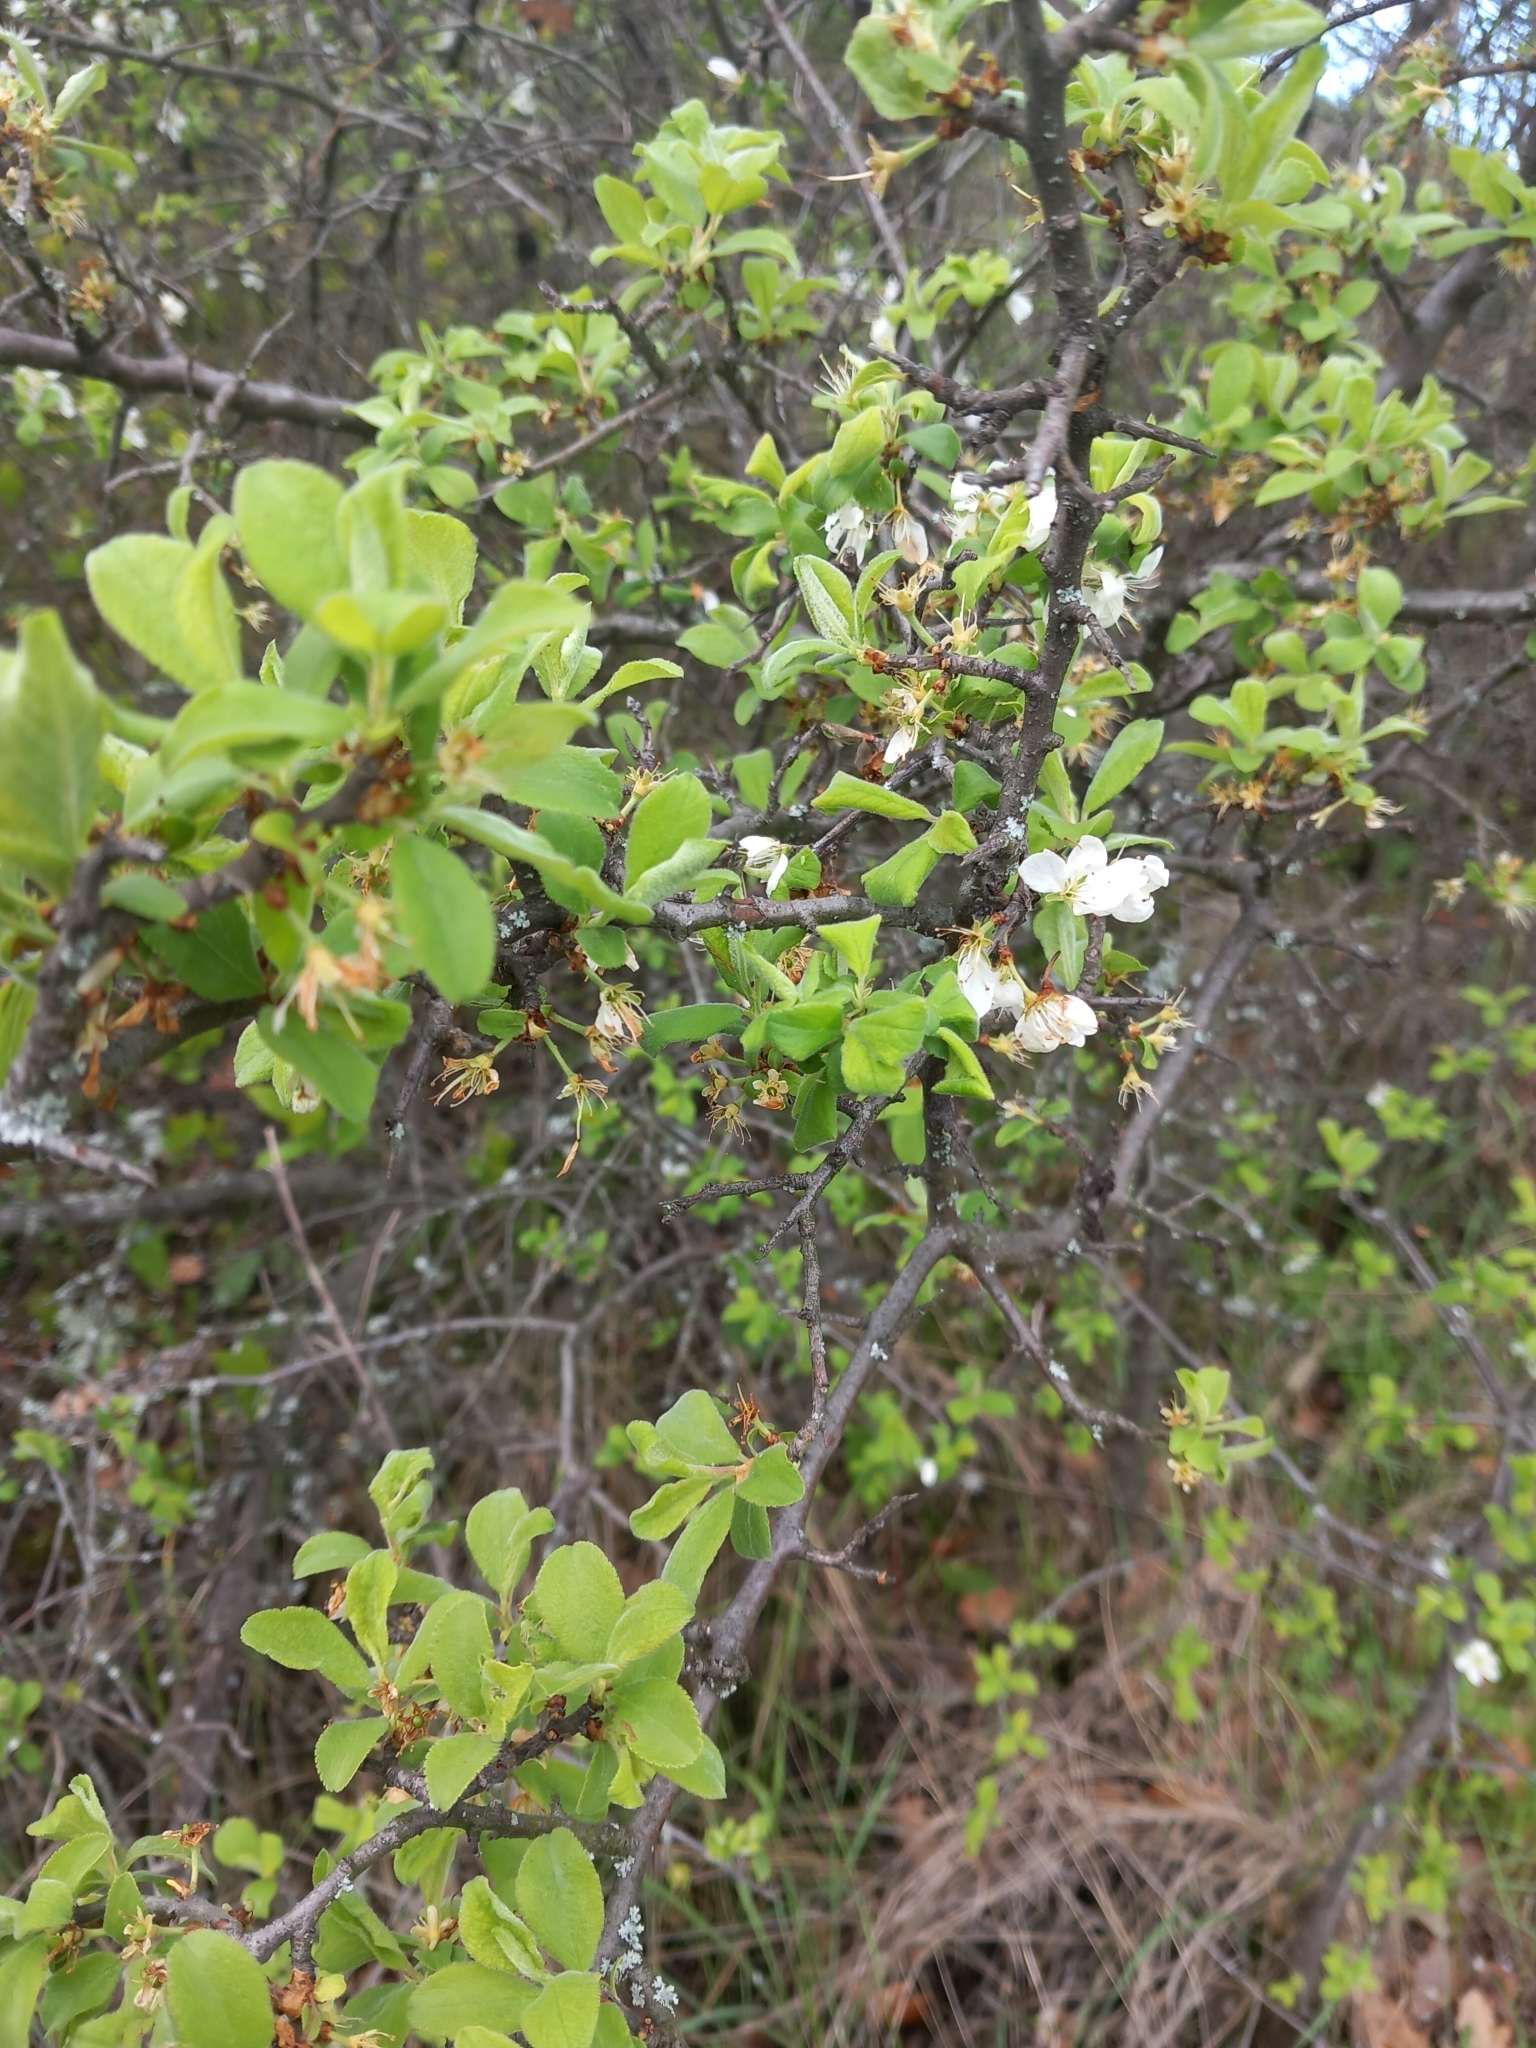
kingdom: Plantae
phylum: Tracheophyta
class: Magnoliopsida
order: Rosales
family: Rosaceae
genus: Prunus
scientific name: Prunus spinosa
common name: Blackthorn
